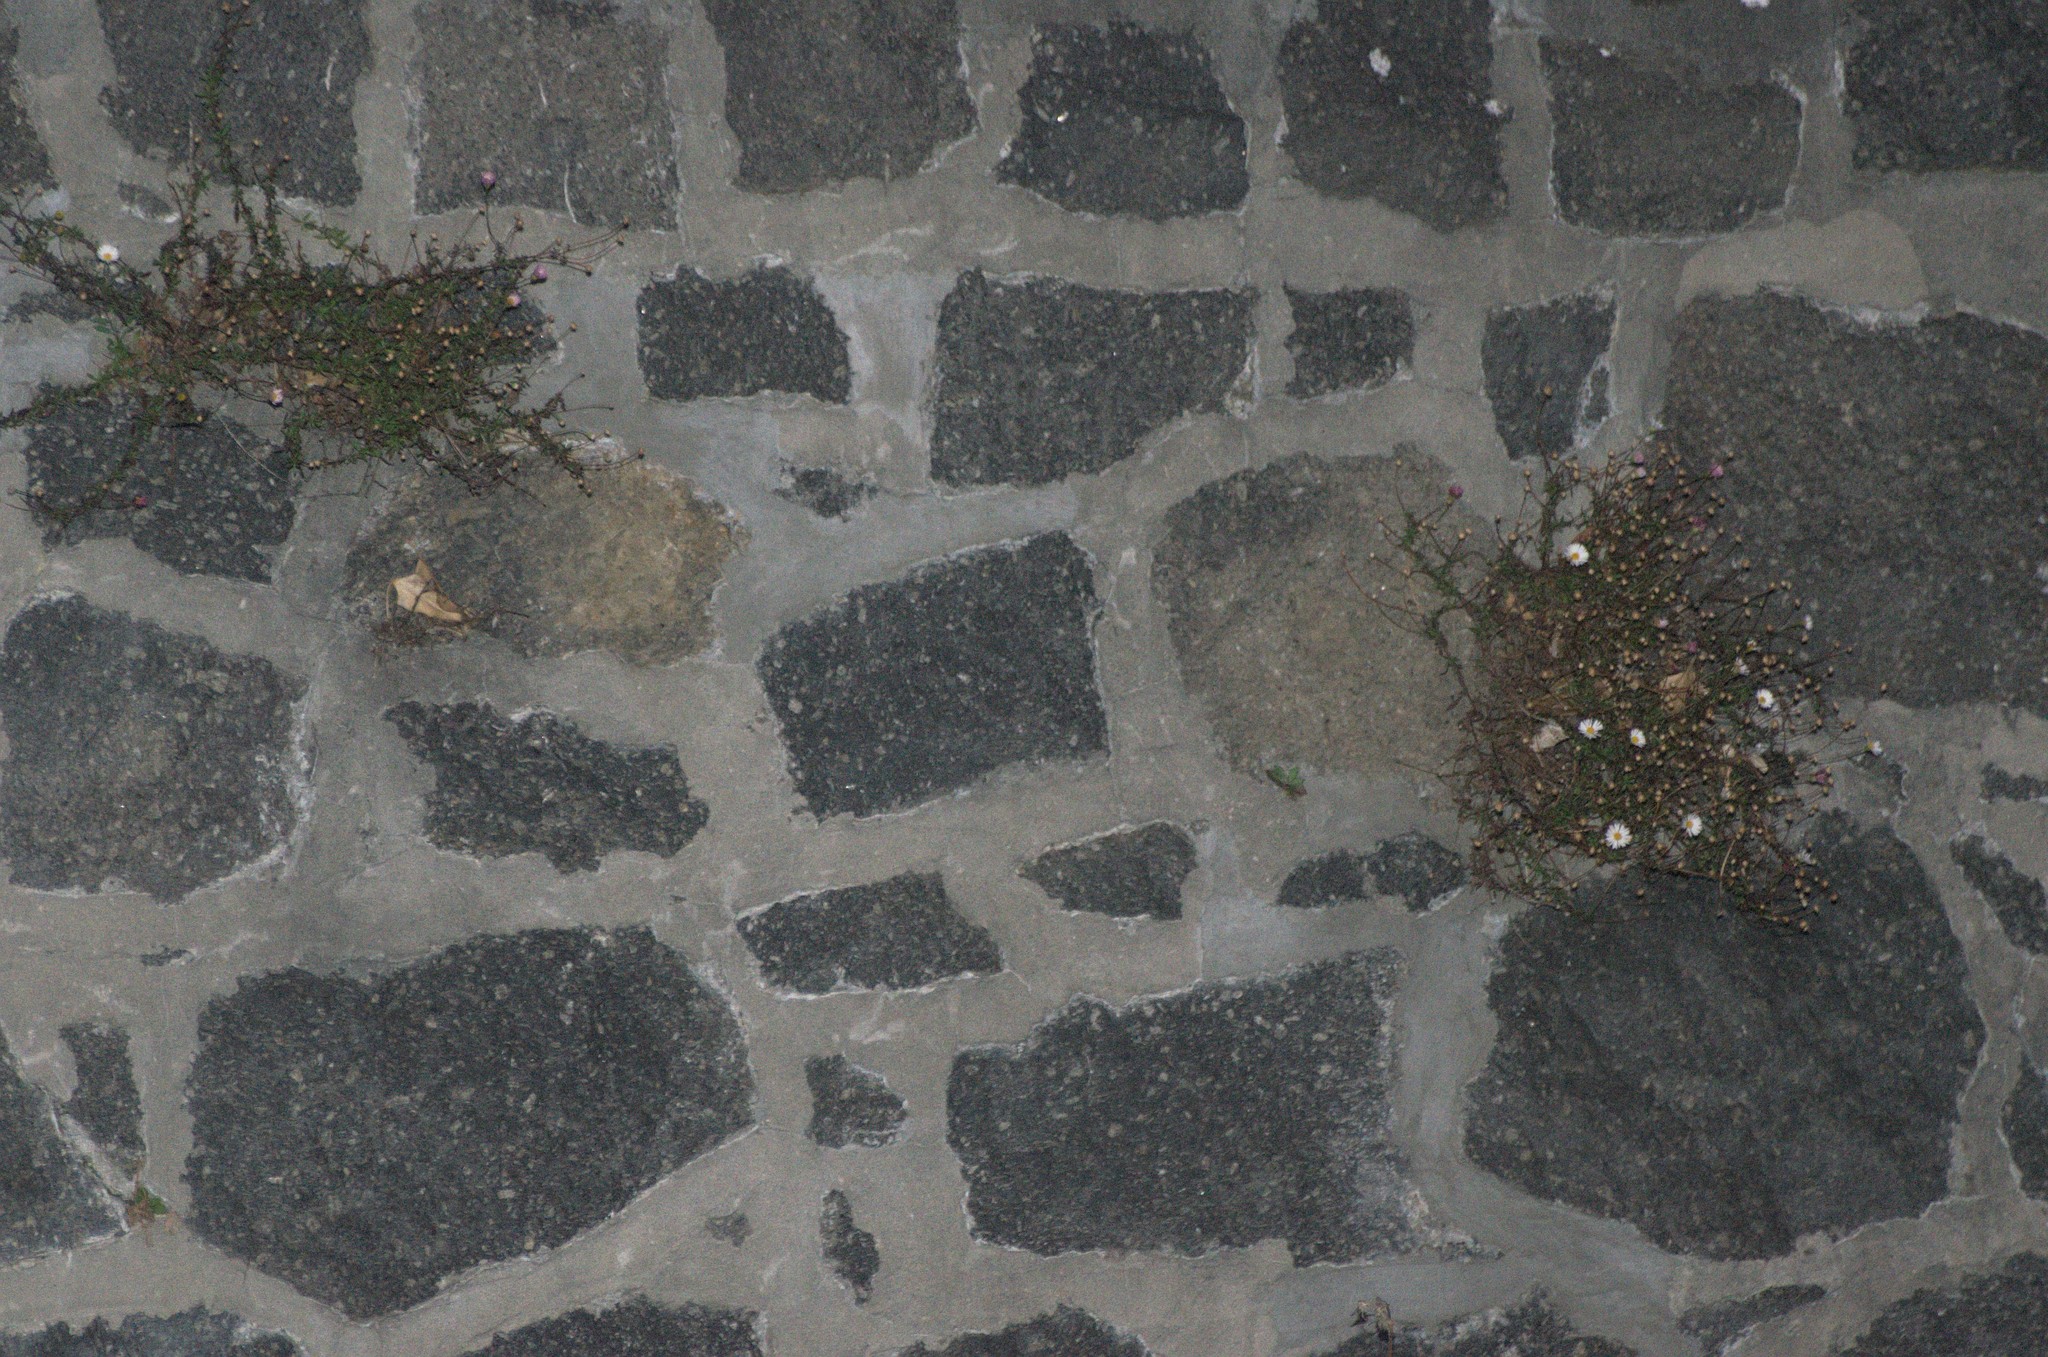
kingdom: Plantae
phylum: Tracheophyta
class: Magnoliopsida
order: Asterales
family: Asteraceae
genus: Erigeron
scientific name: Erigeron karvinskianus
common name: Mexican fleabane
